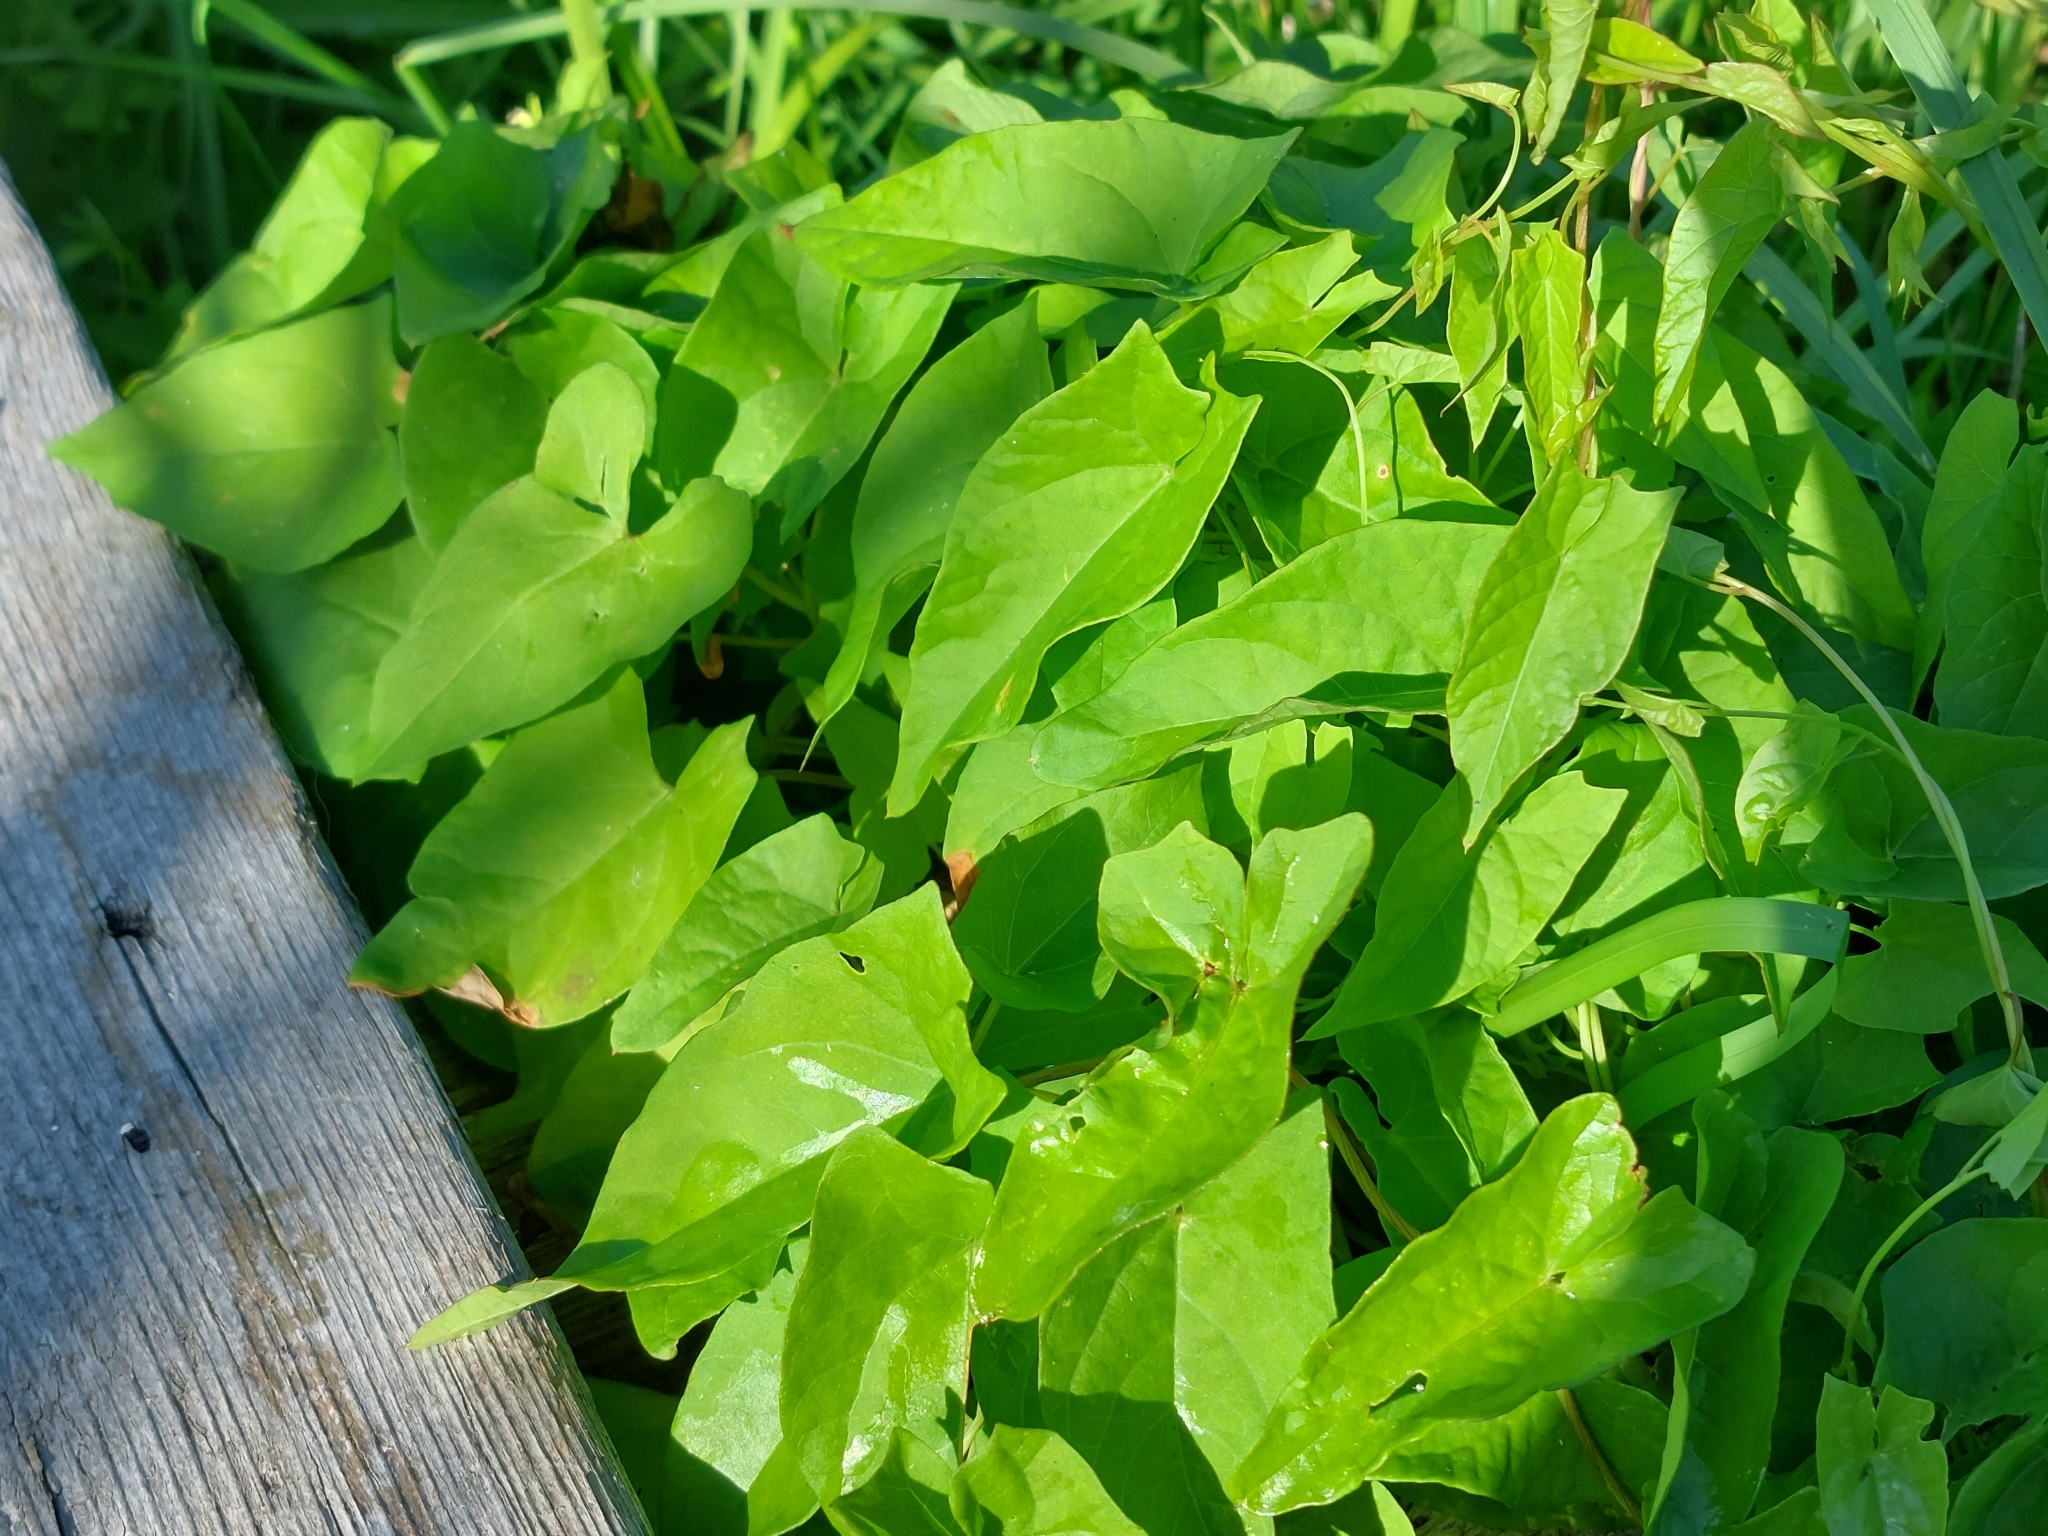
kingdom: Plantae
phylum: Tracheophyta
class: Magnoliopsida
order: Solanales
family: Convolvulaceae
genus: Calystegia
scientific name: Calystegia sepium
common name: Hedge bindweed
